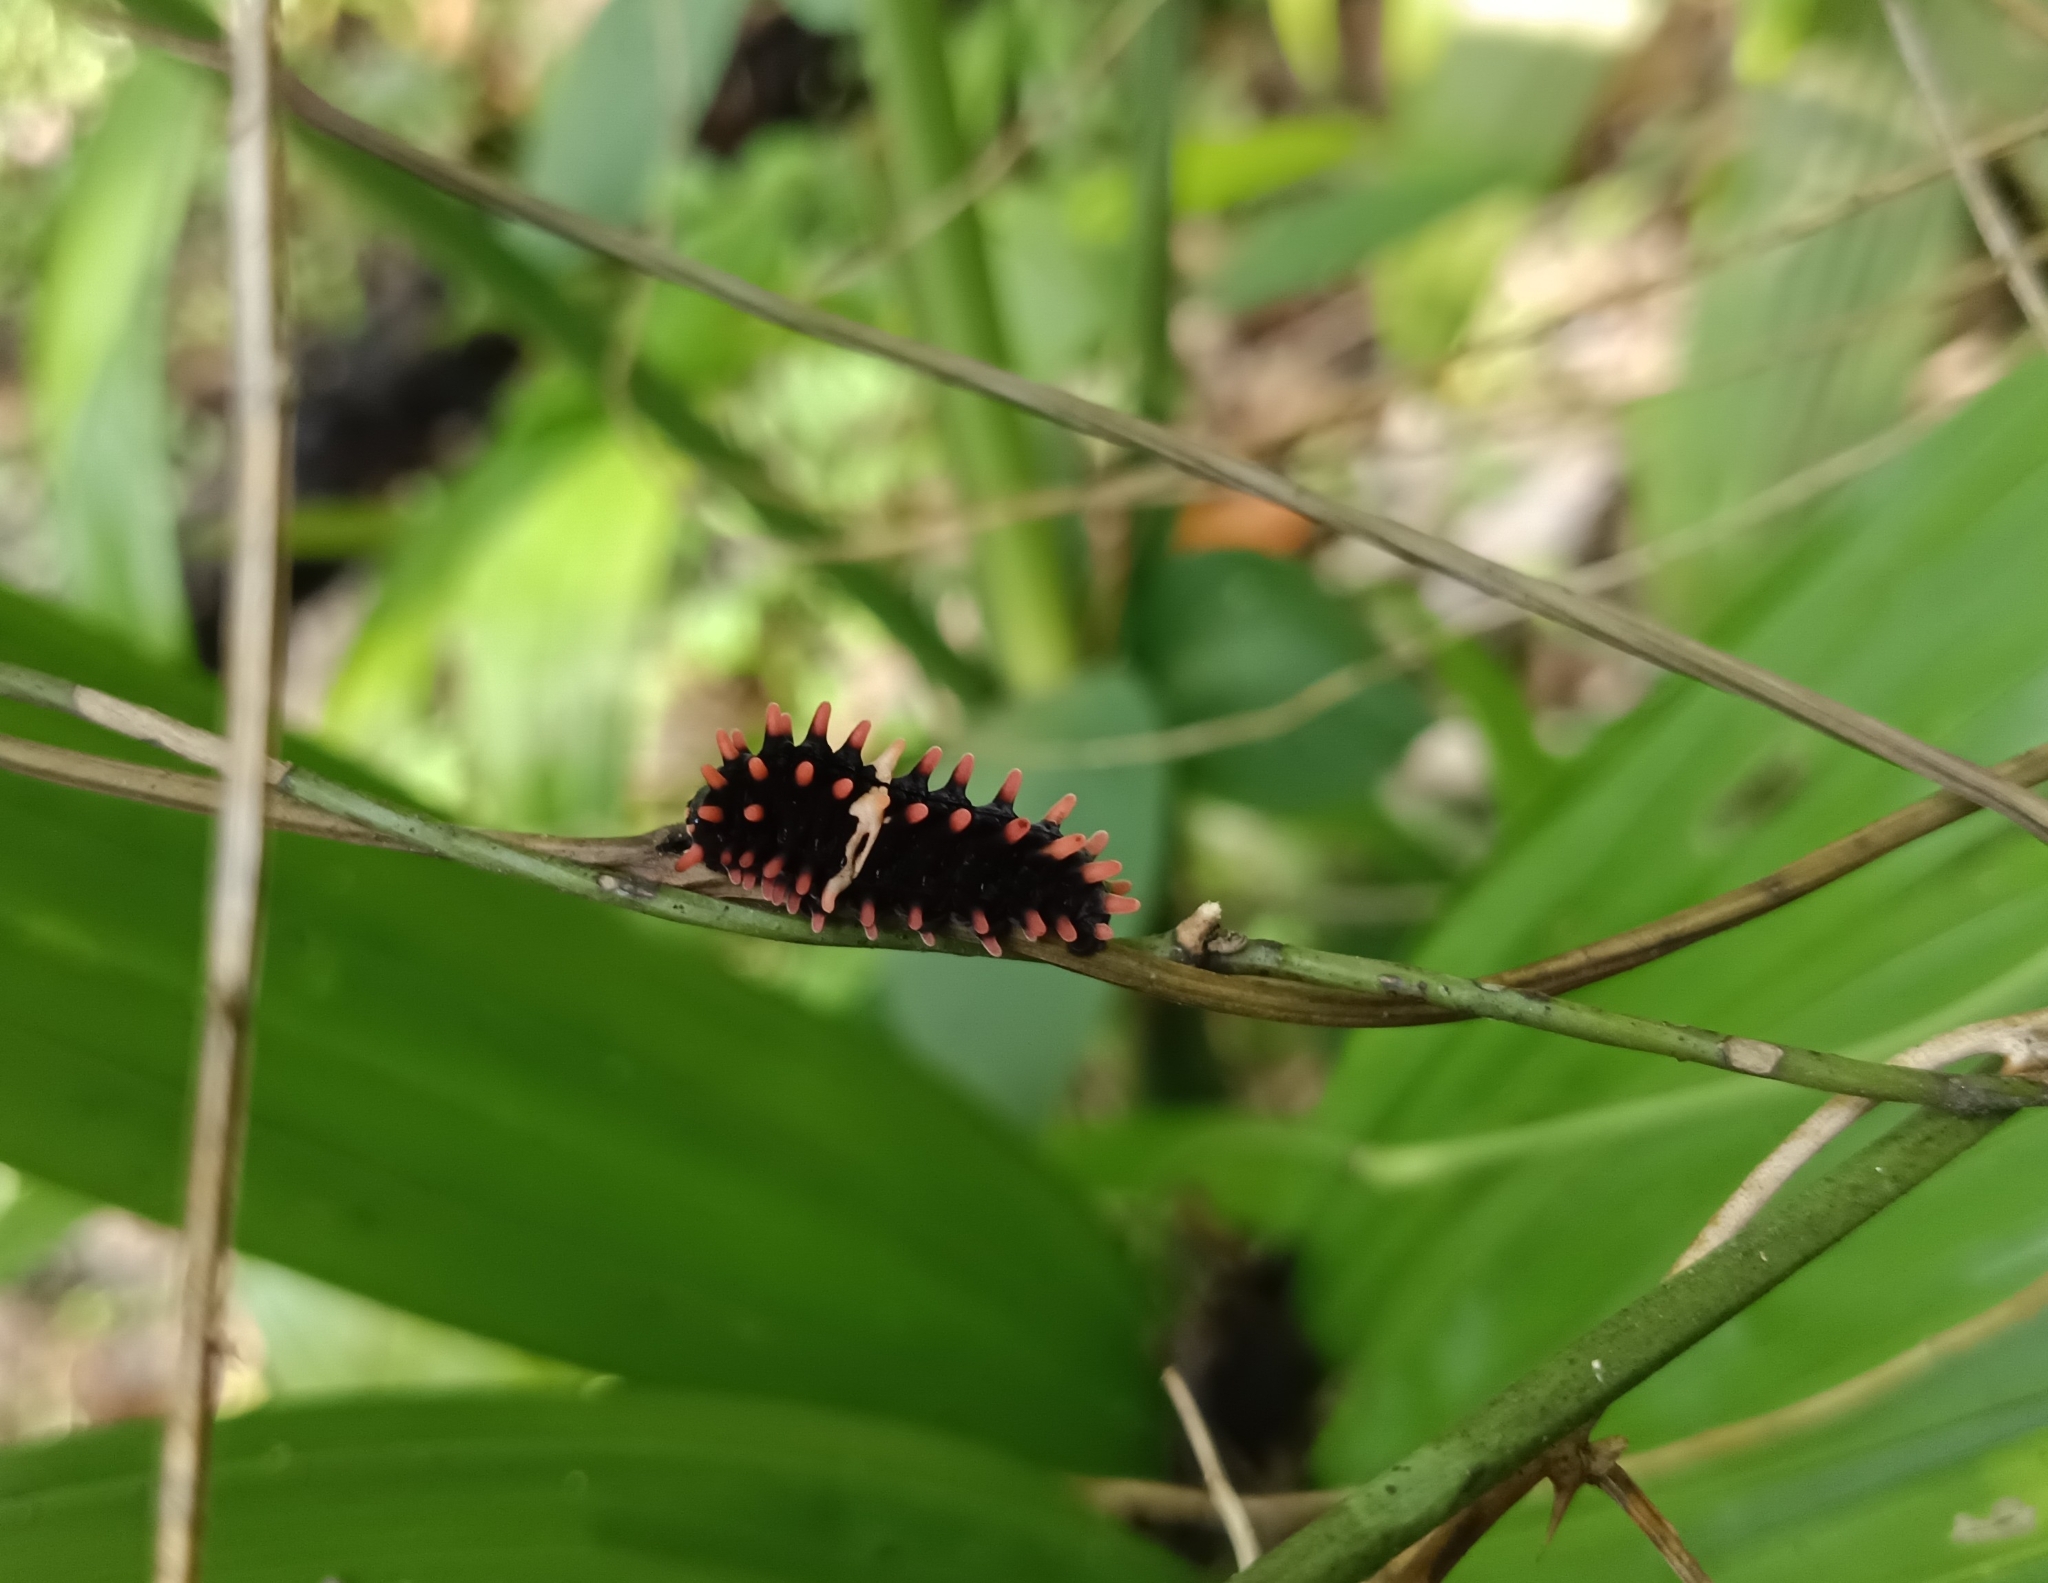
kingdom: Animalia
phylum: Arthropoda
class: Insecta
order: Lepidoptera
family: Papilionidae
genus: Pachliopta
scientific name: Pachliopta aristolochiae
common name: Common rose
